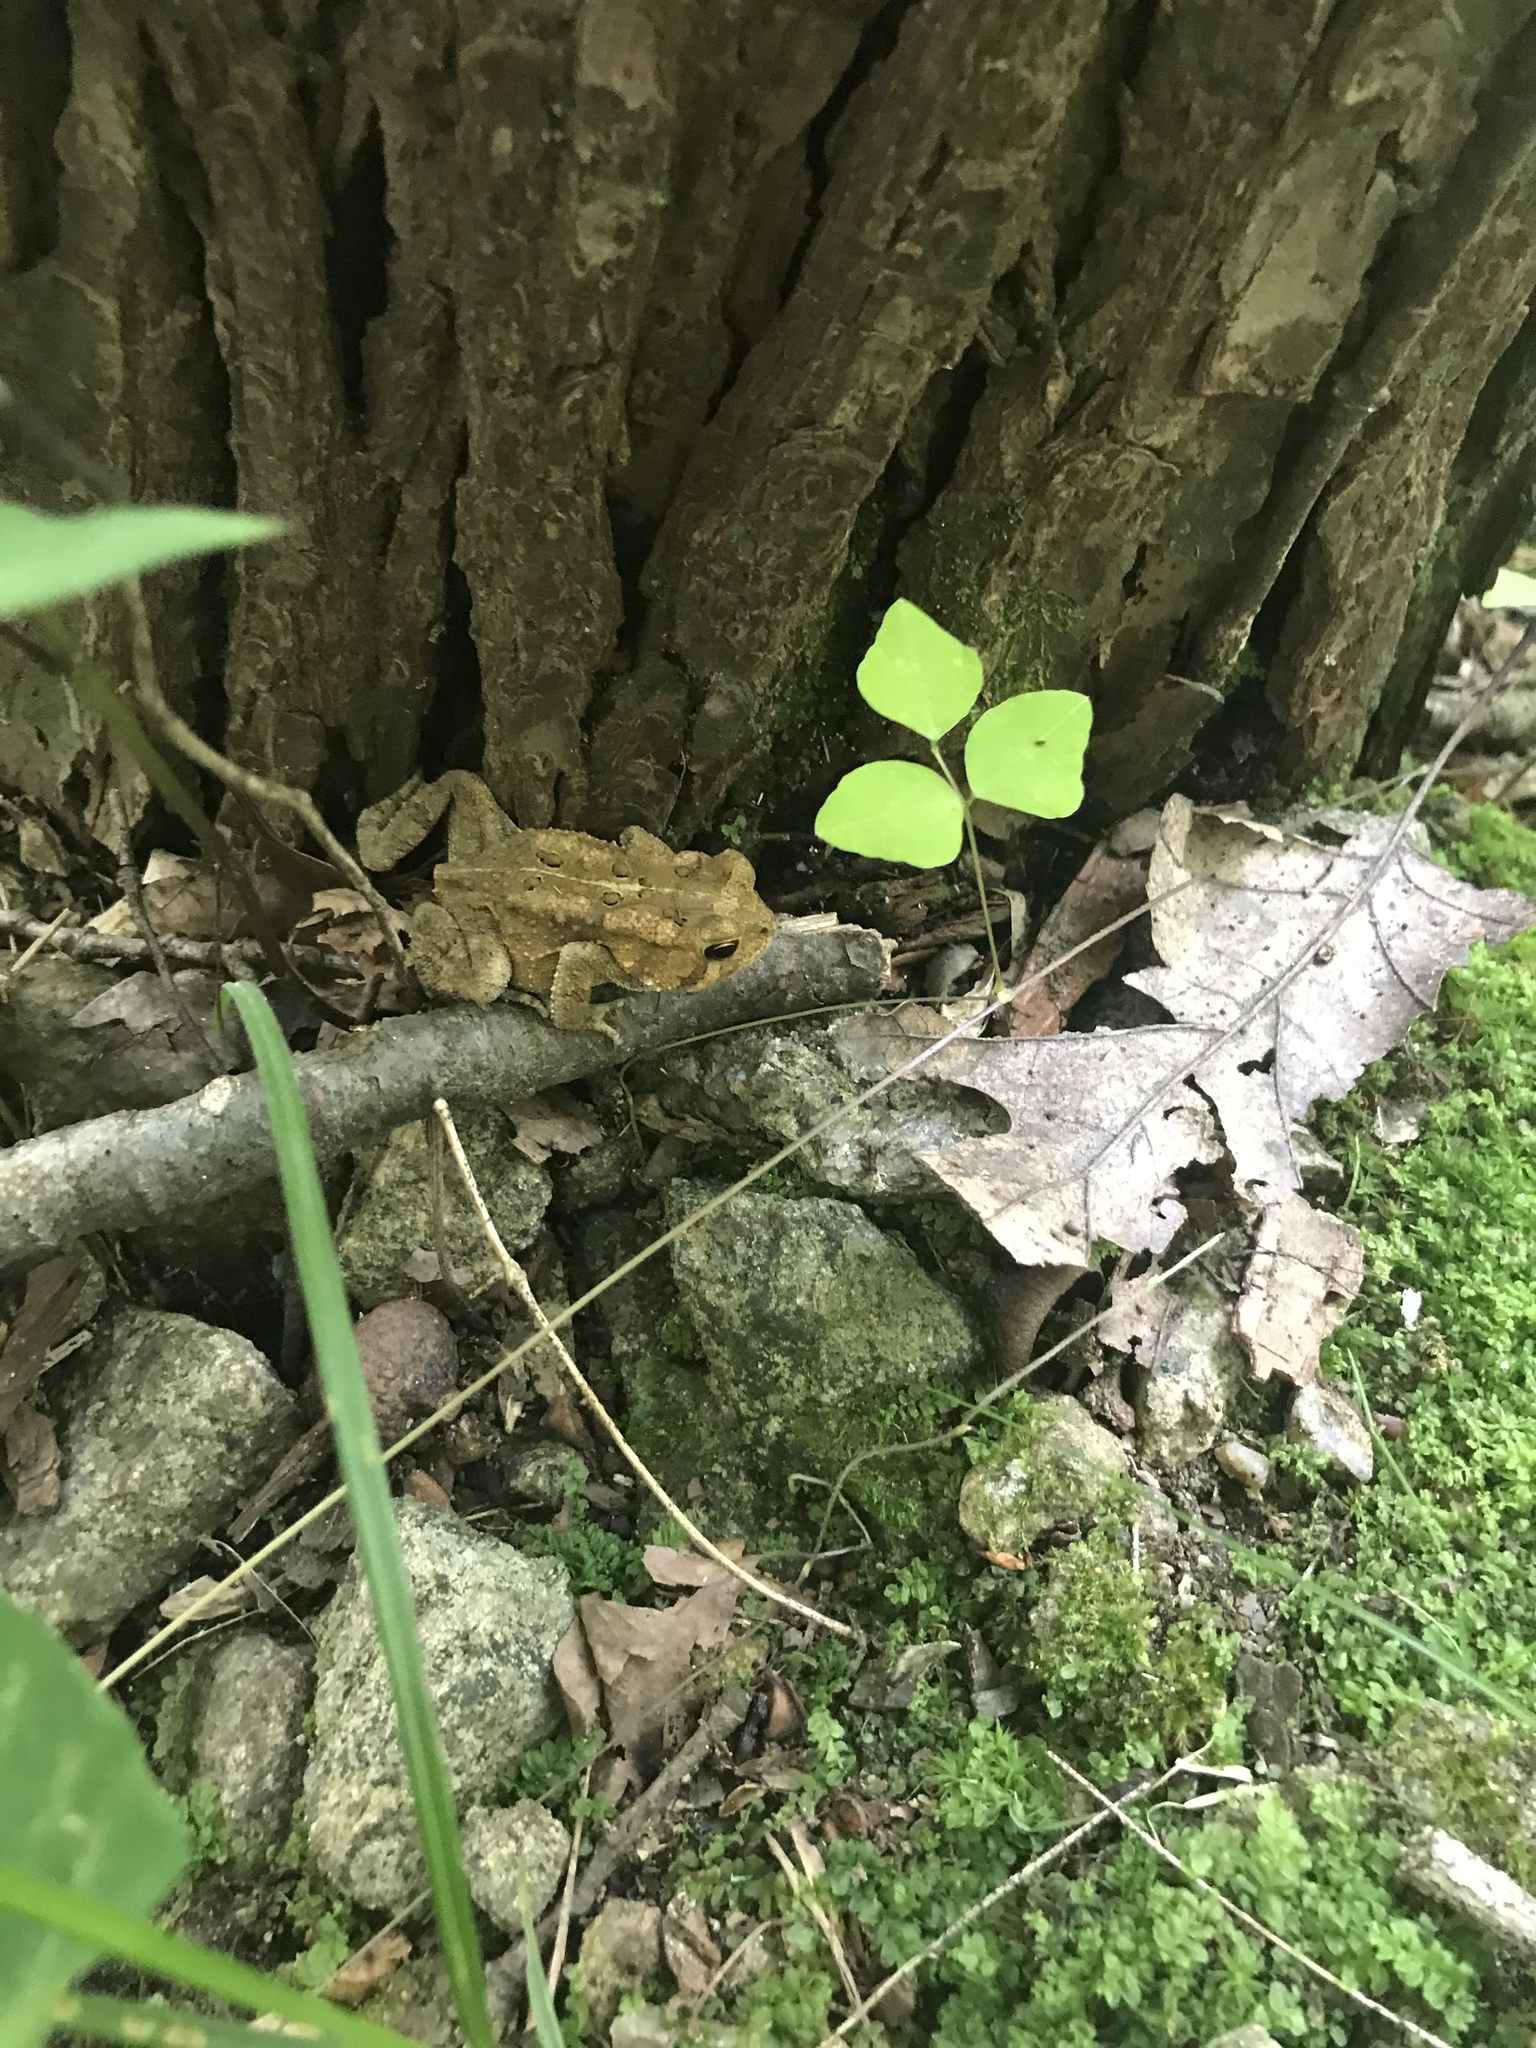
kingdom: Animalia
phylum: Chordata
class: Amphibia
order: Anura
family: Bufonidae
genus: Anaxyrus
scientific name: Anaxyrus americanus
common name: American toad
